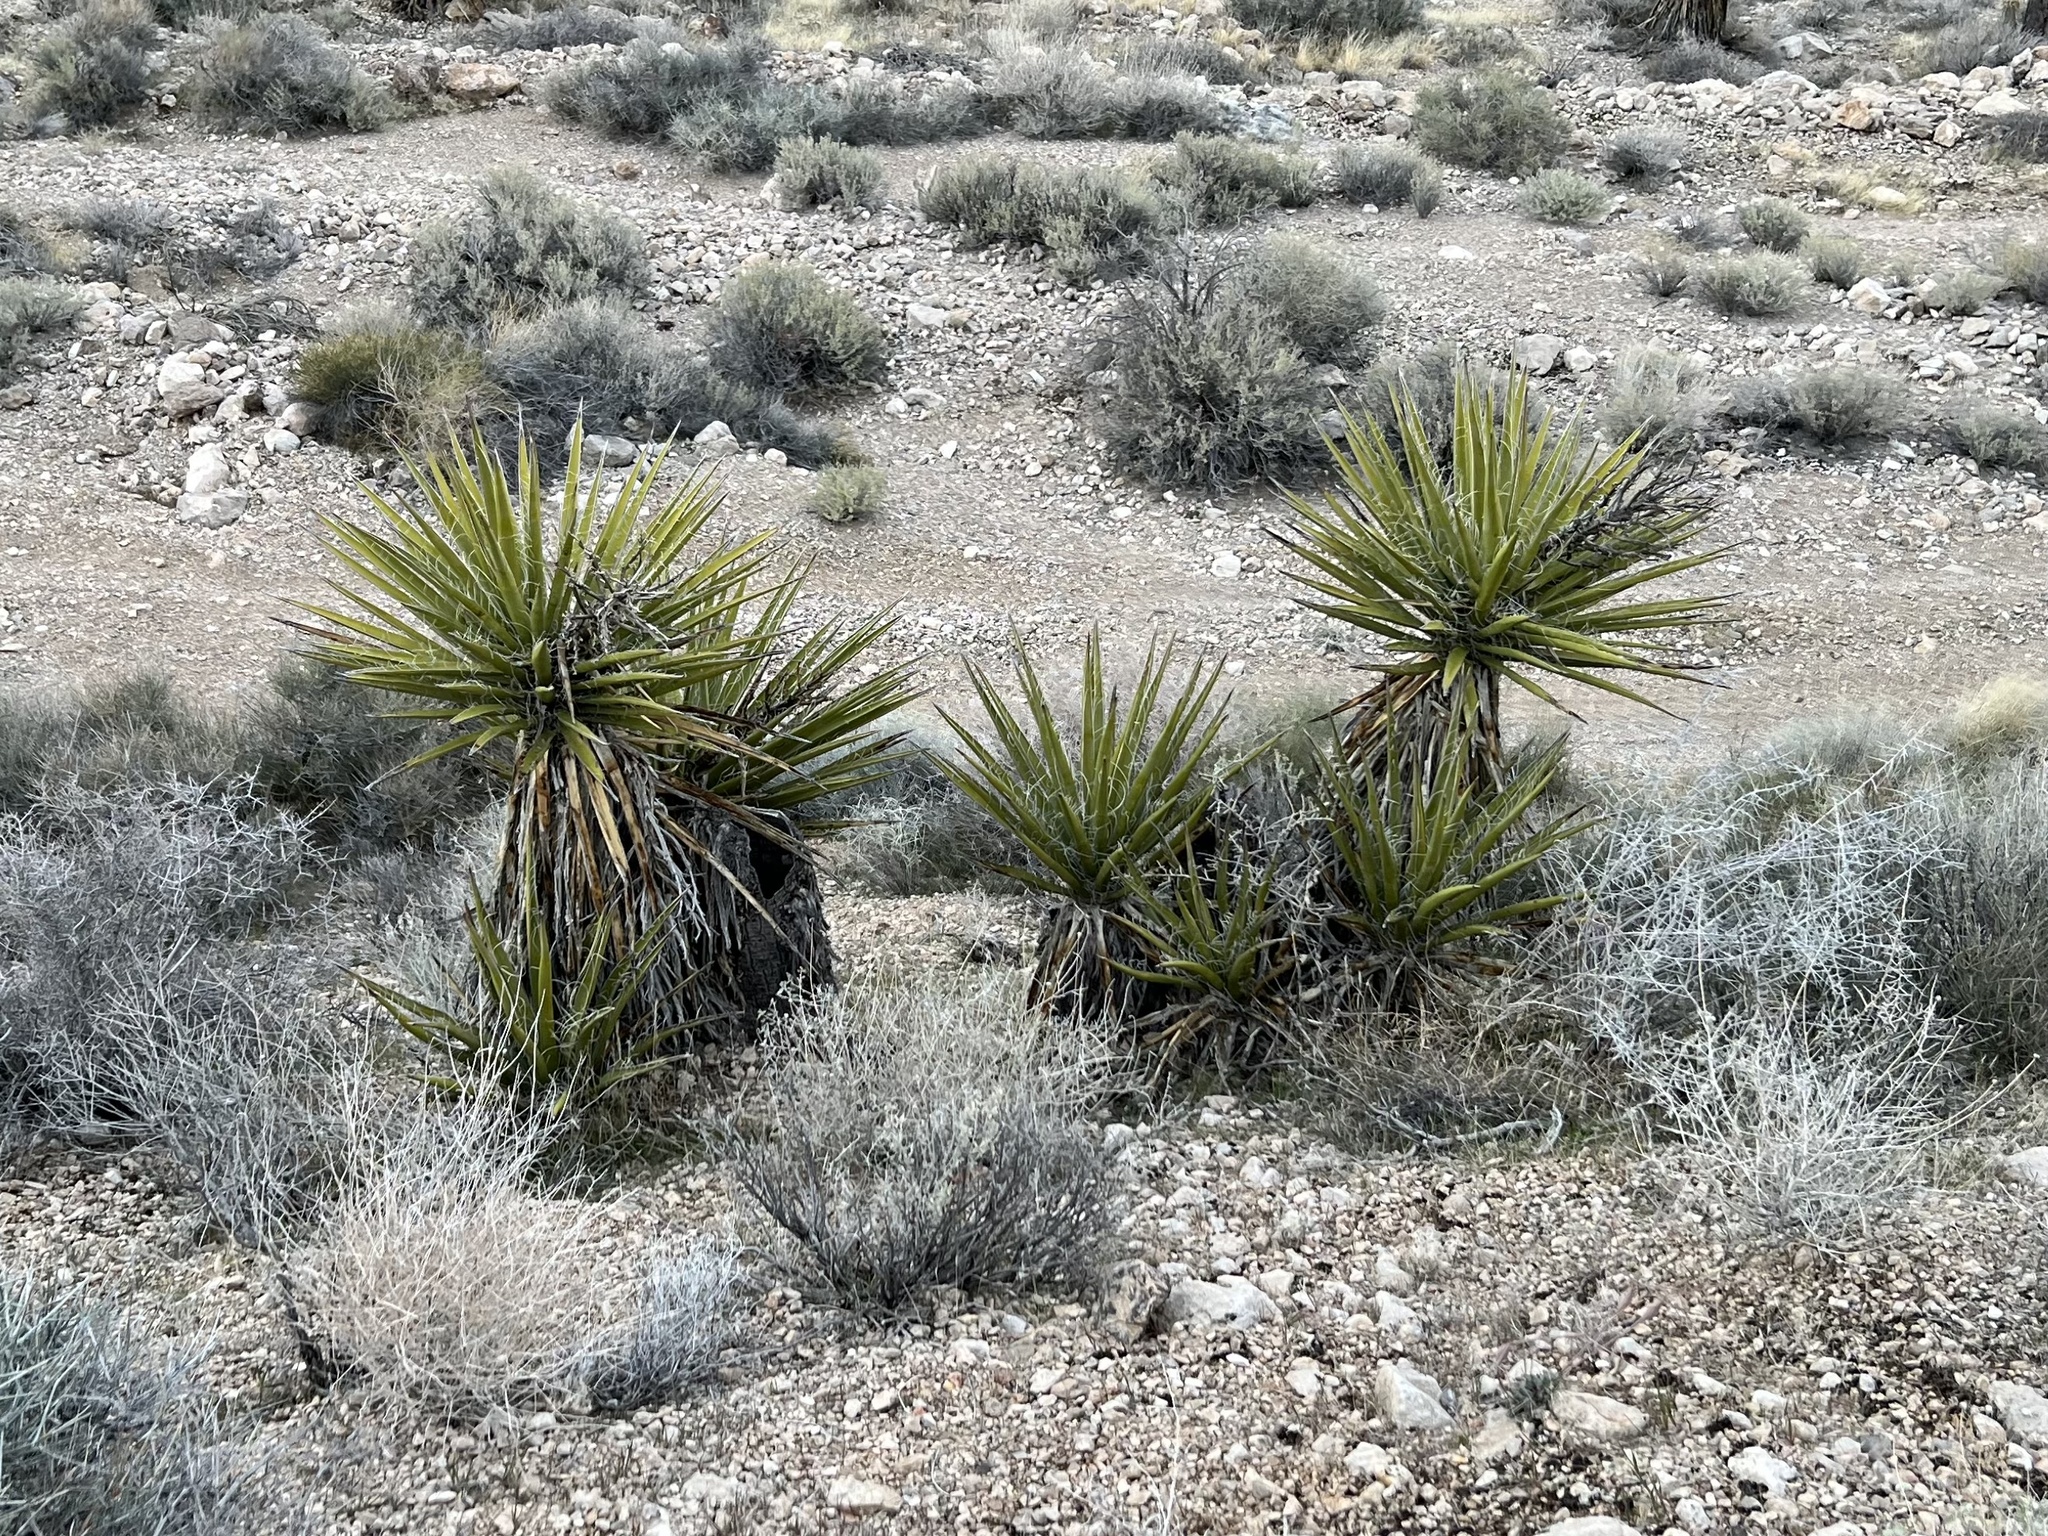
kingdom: Plantae
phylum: Tracheophyta
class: Liliopsida
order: Asparagales
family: Asparagaceae
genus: Yucca
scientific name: Yucca schidigera
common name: Mojave yucca
